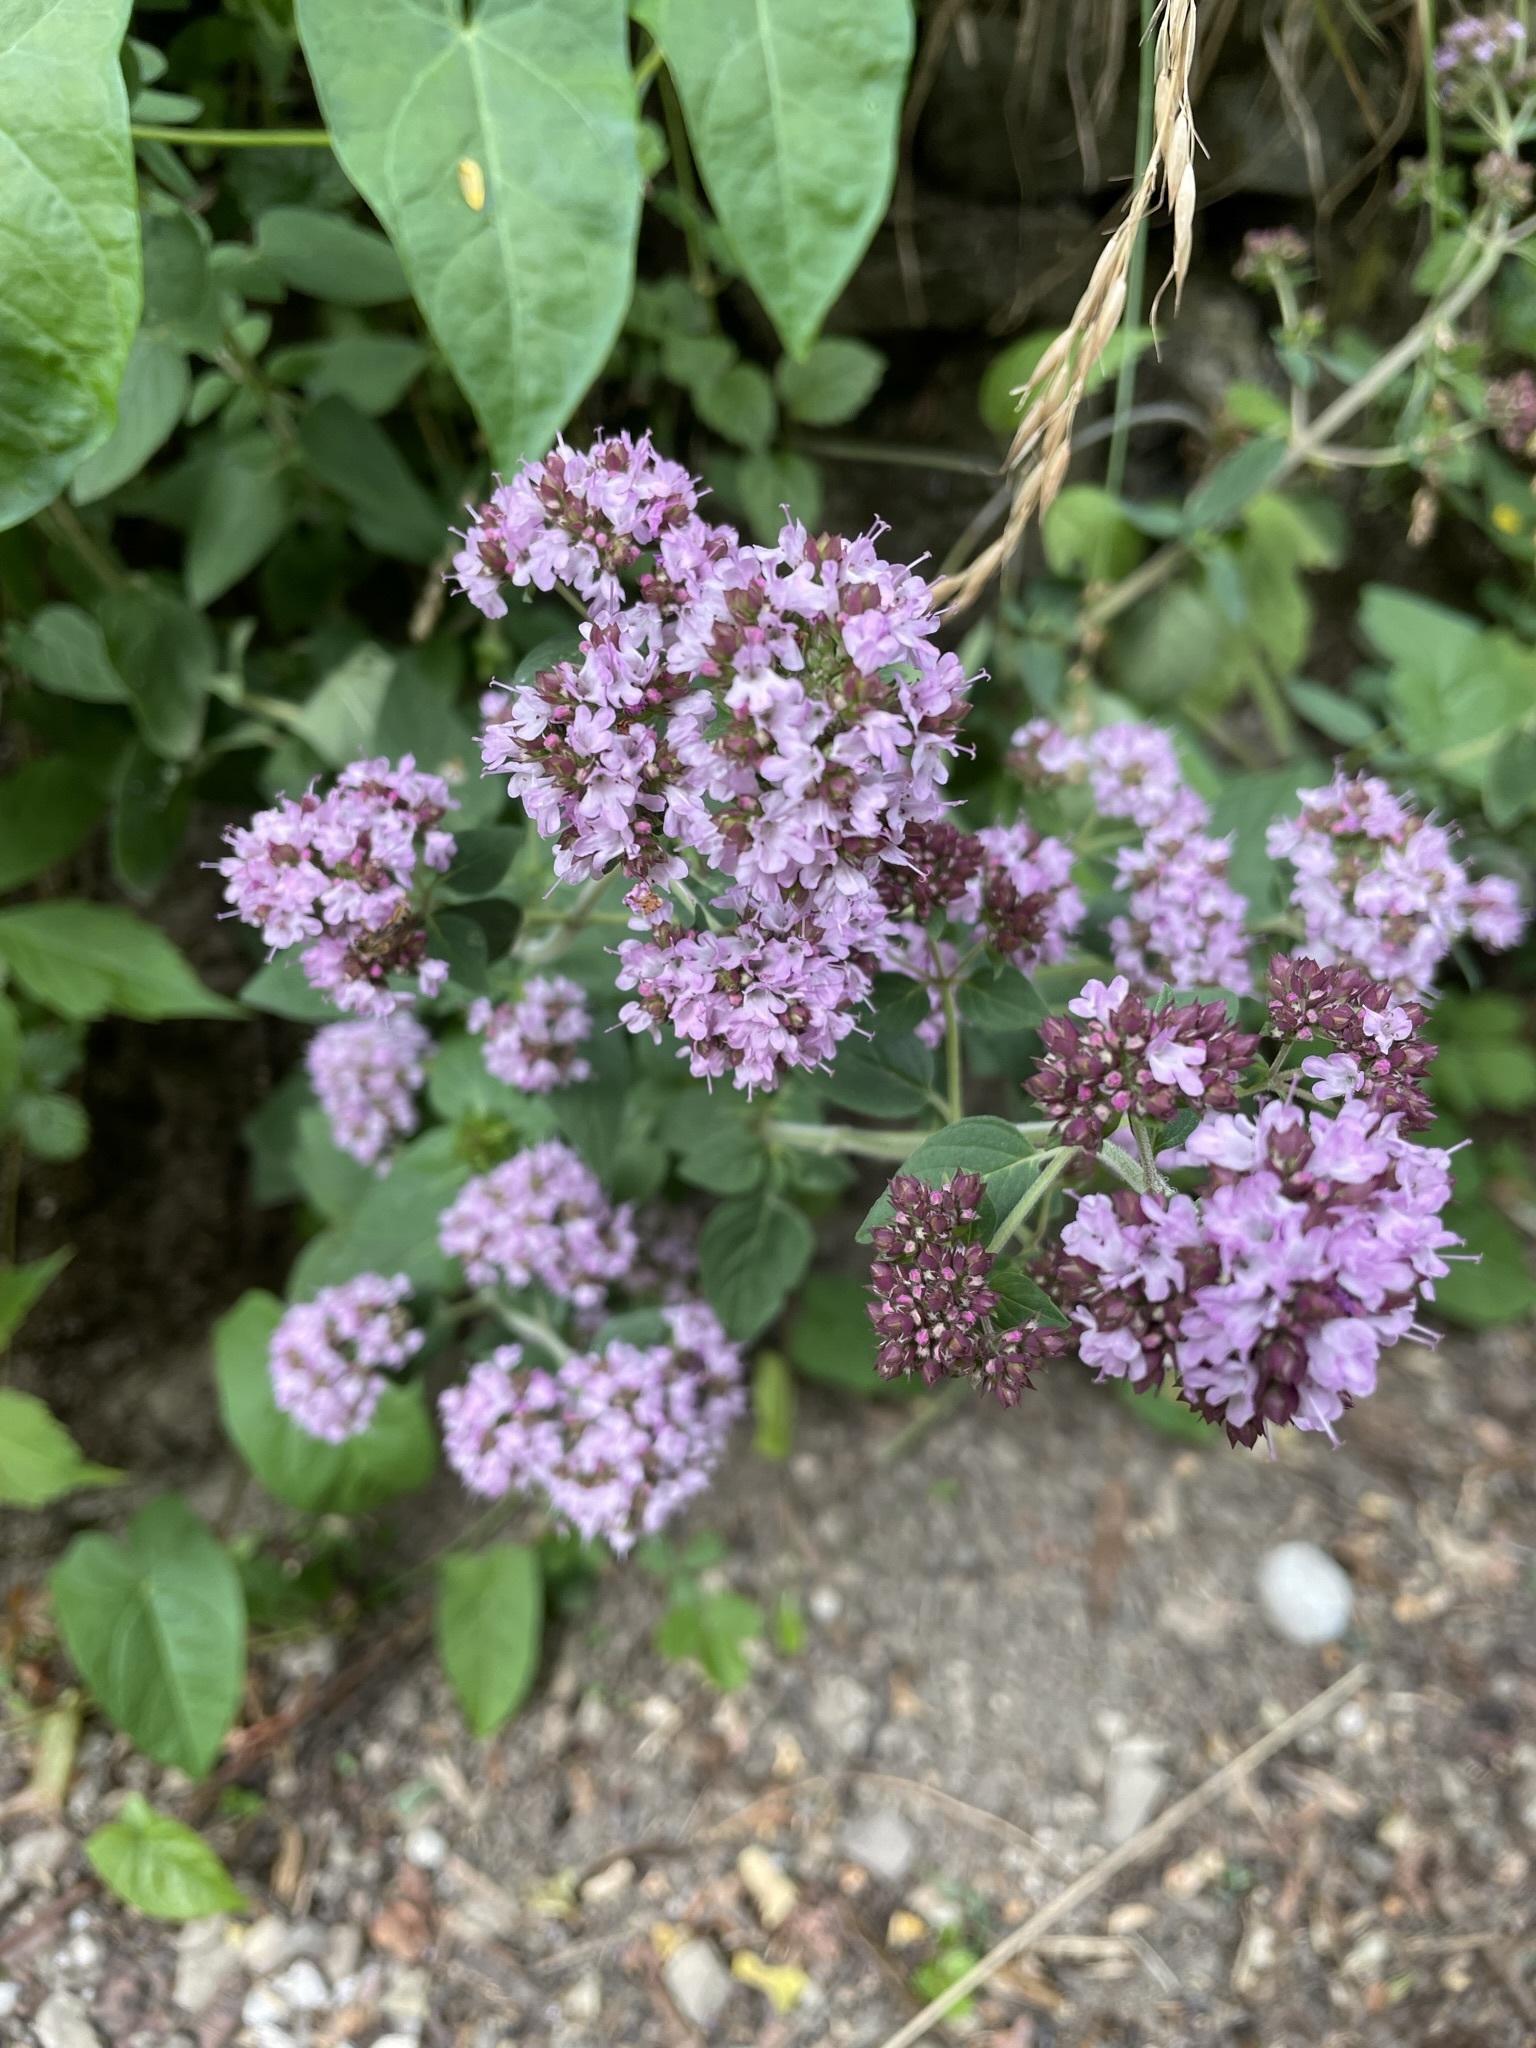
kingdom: Plantae
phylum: Tracheophyta
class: Magnoliopsida
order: Lamiales
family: Lamiaceae
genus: Origanum
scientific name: Origanum vulgare
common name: Wild marjoram
